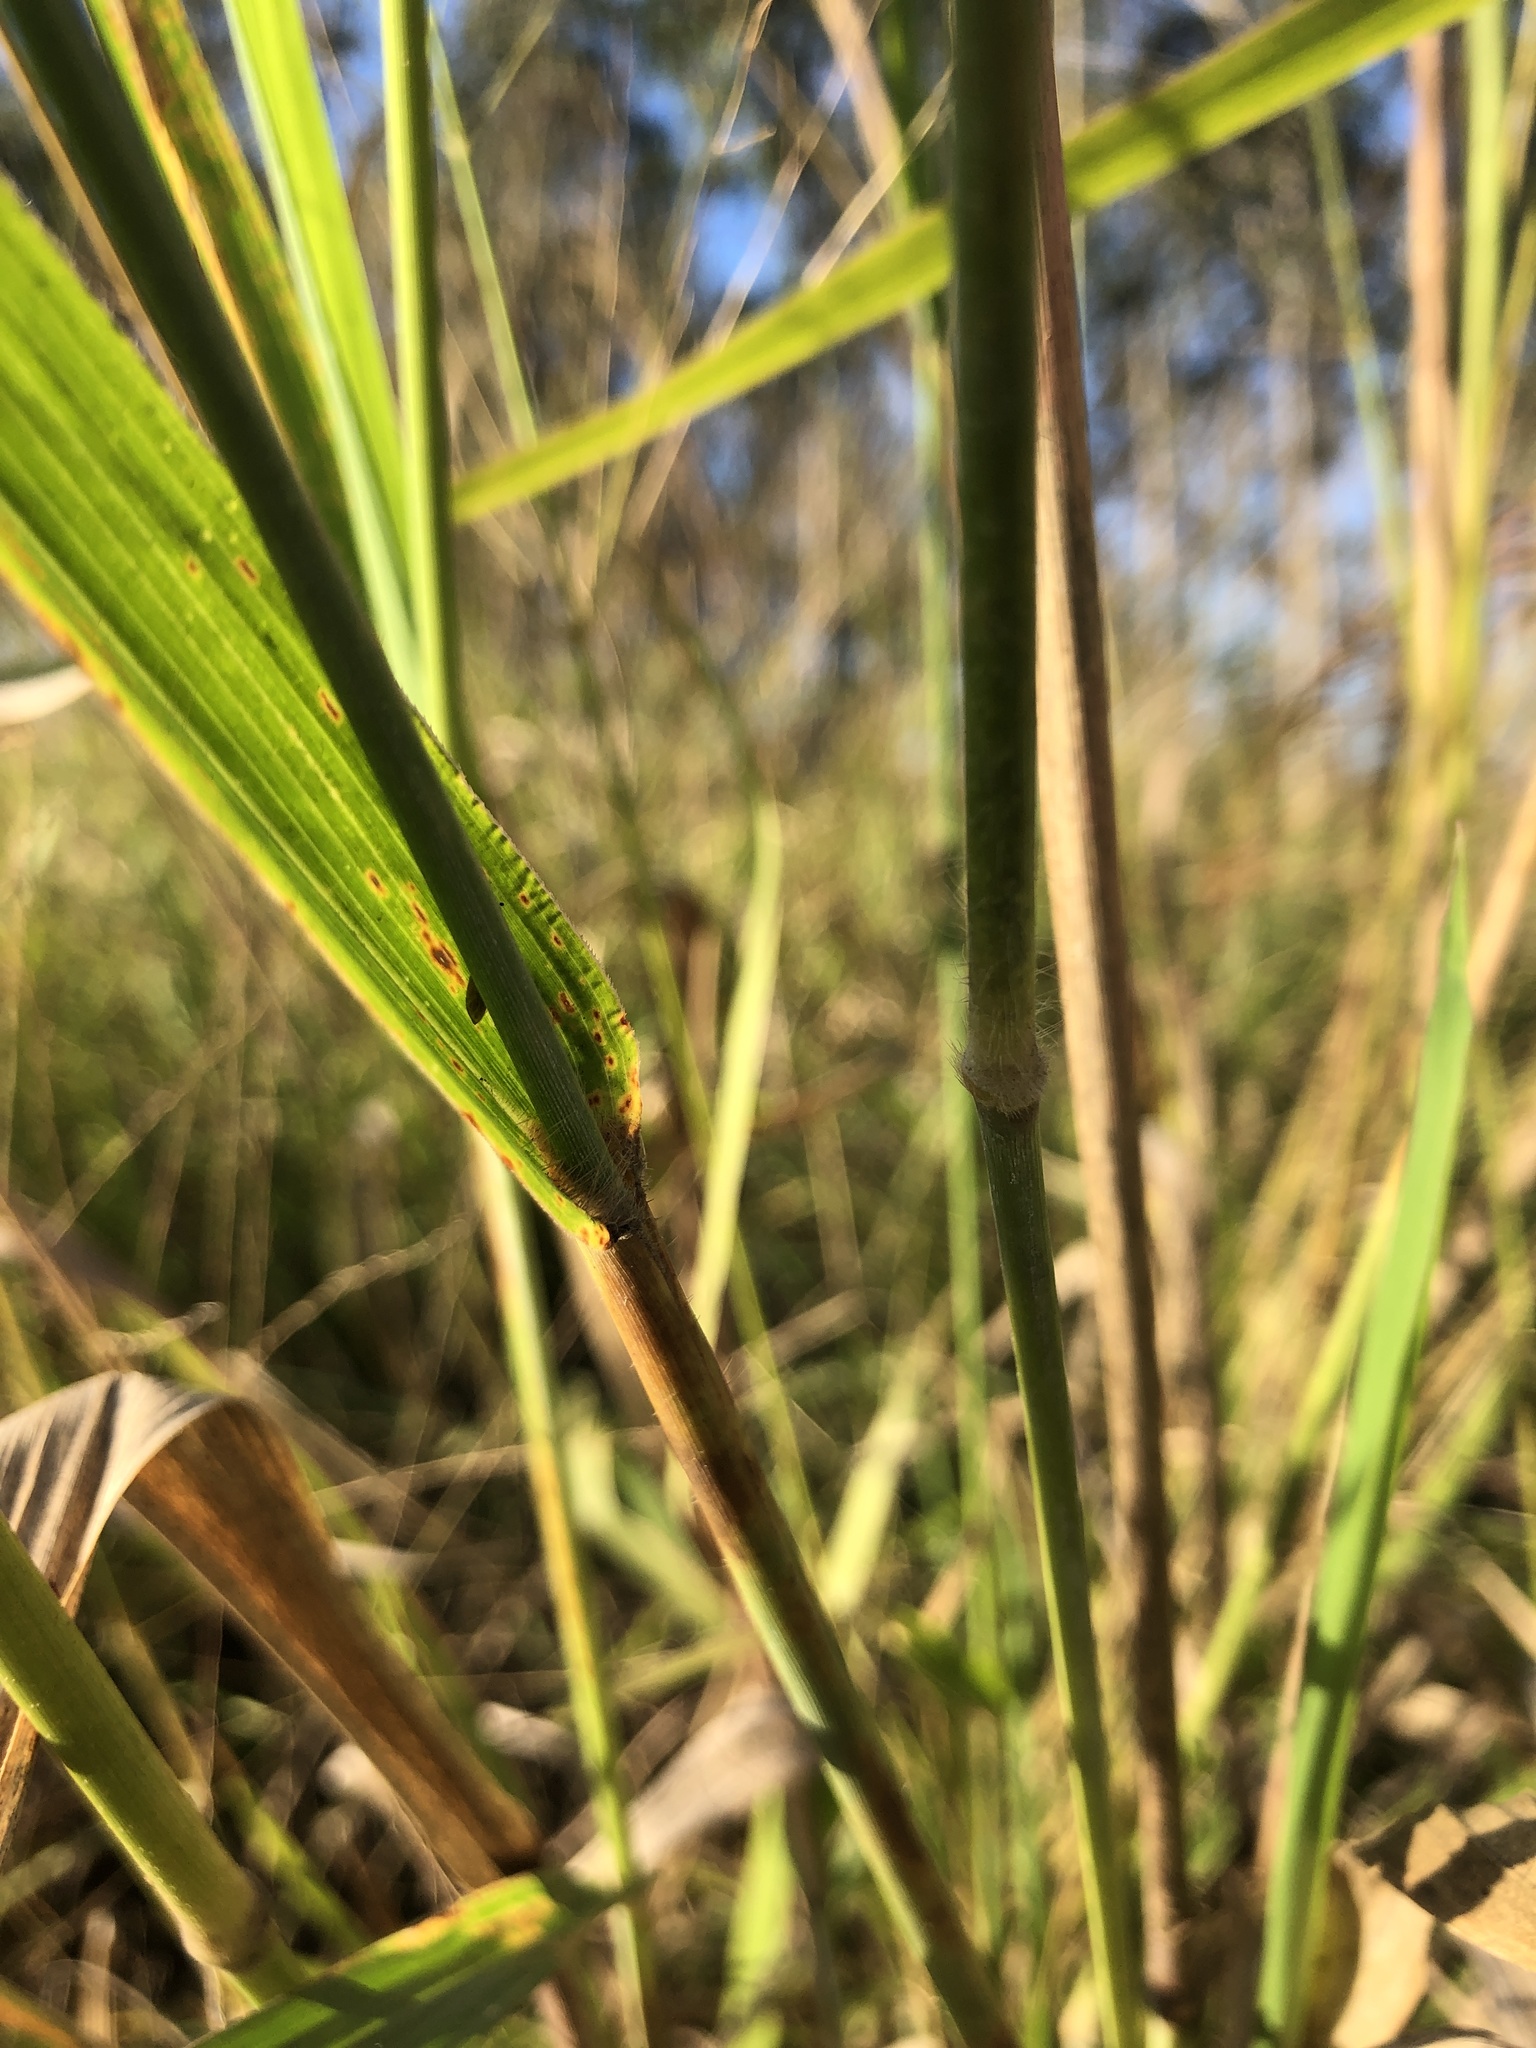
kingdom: Plantae
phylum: Tracheophyta
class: Liliopsida
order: Poales
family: Poaceae
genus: Megathyrsus
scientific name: Megathyrsus maximus
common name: Guineagrass
